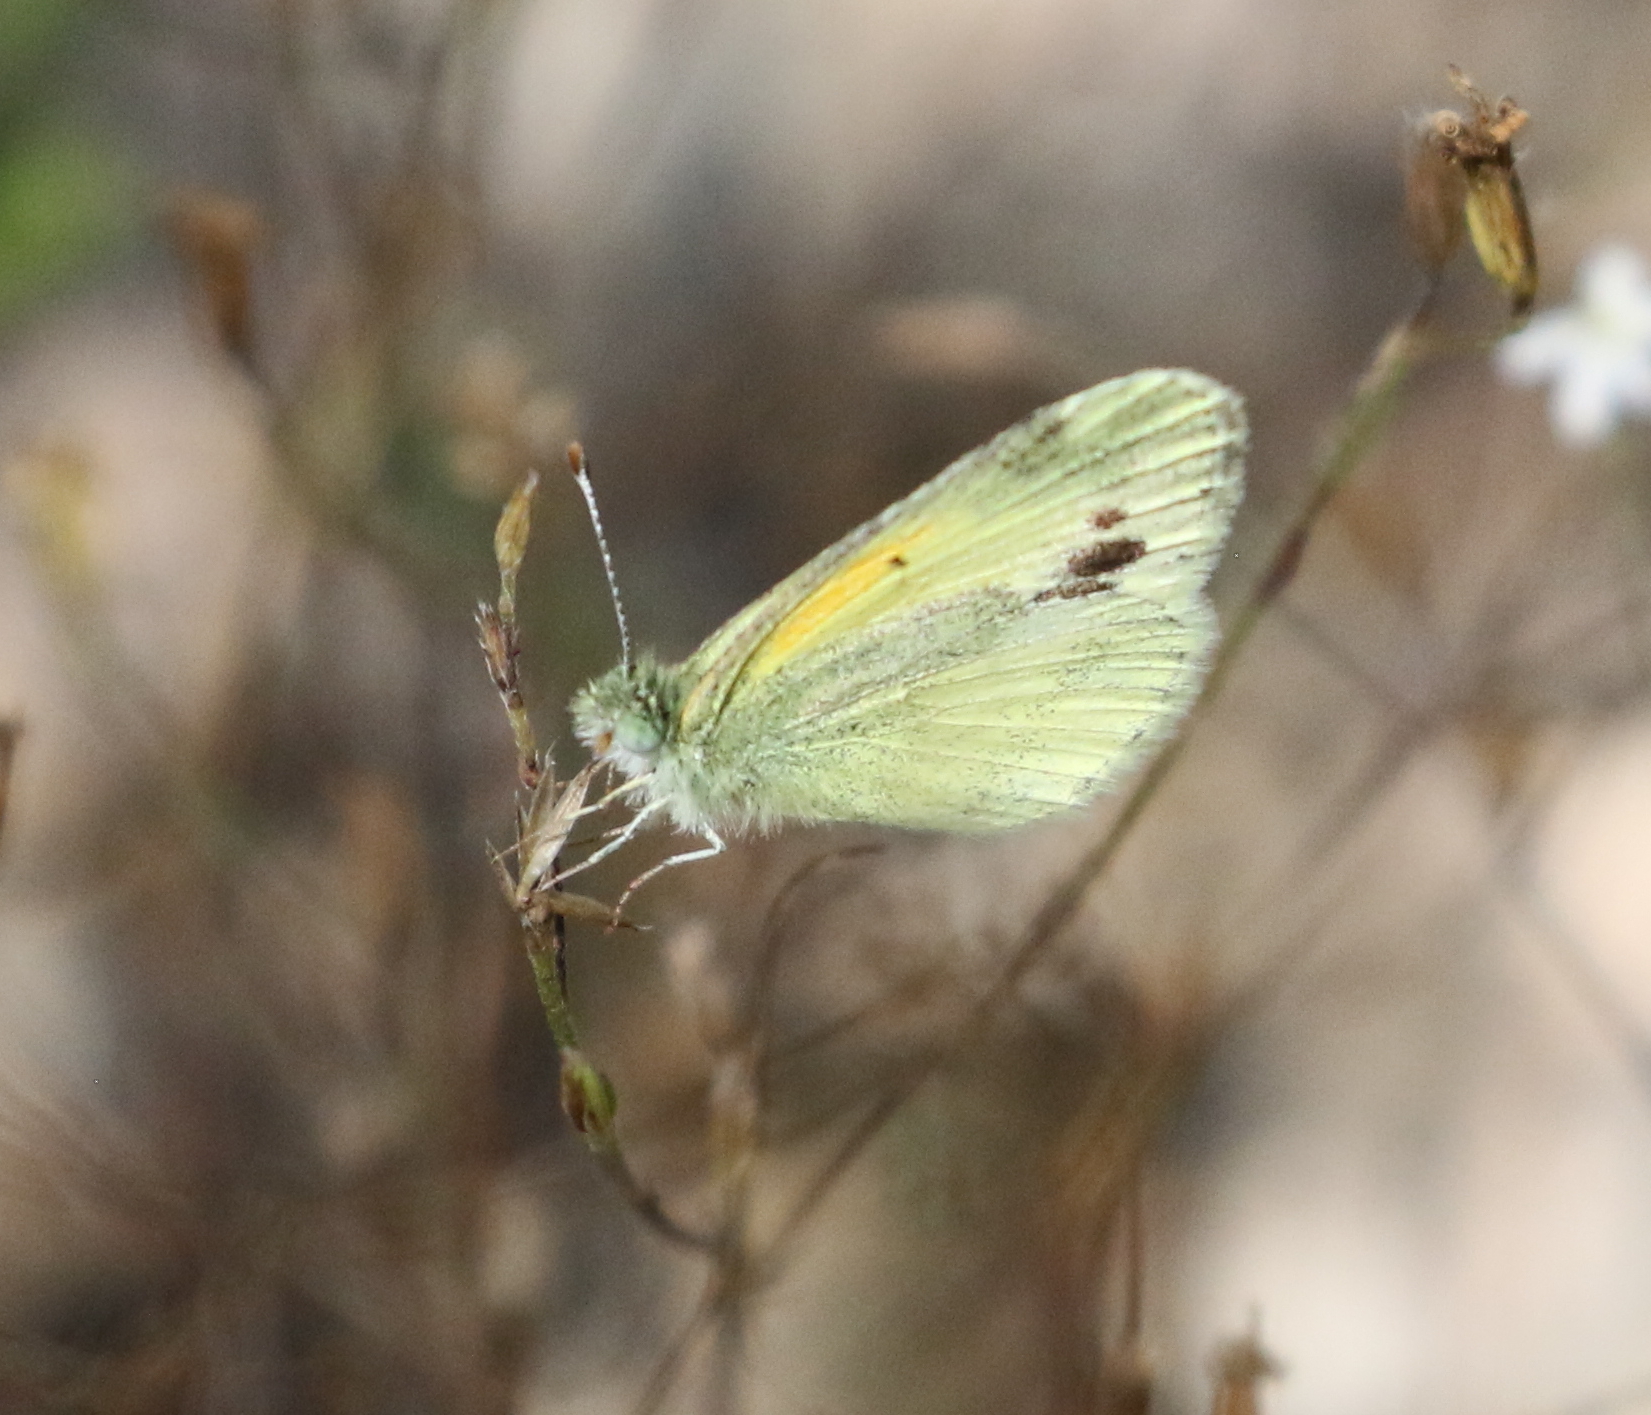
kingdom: Animalia
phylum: Arthropoda
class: Insecta
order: Lepidoptera
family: Pieridae
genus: Nathalis
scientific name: Nathalis iole
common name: Dainty sulphur
